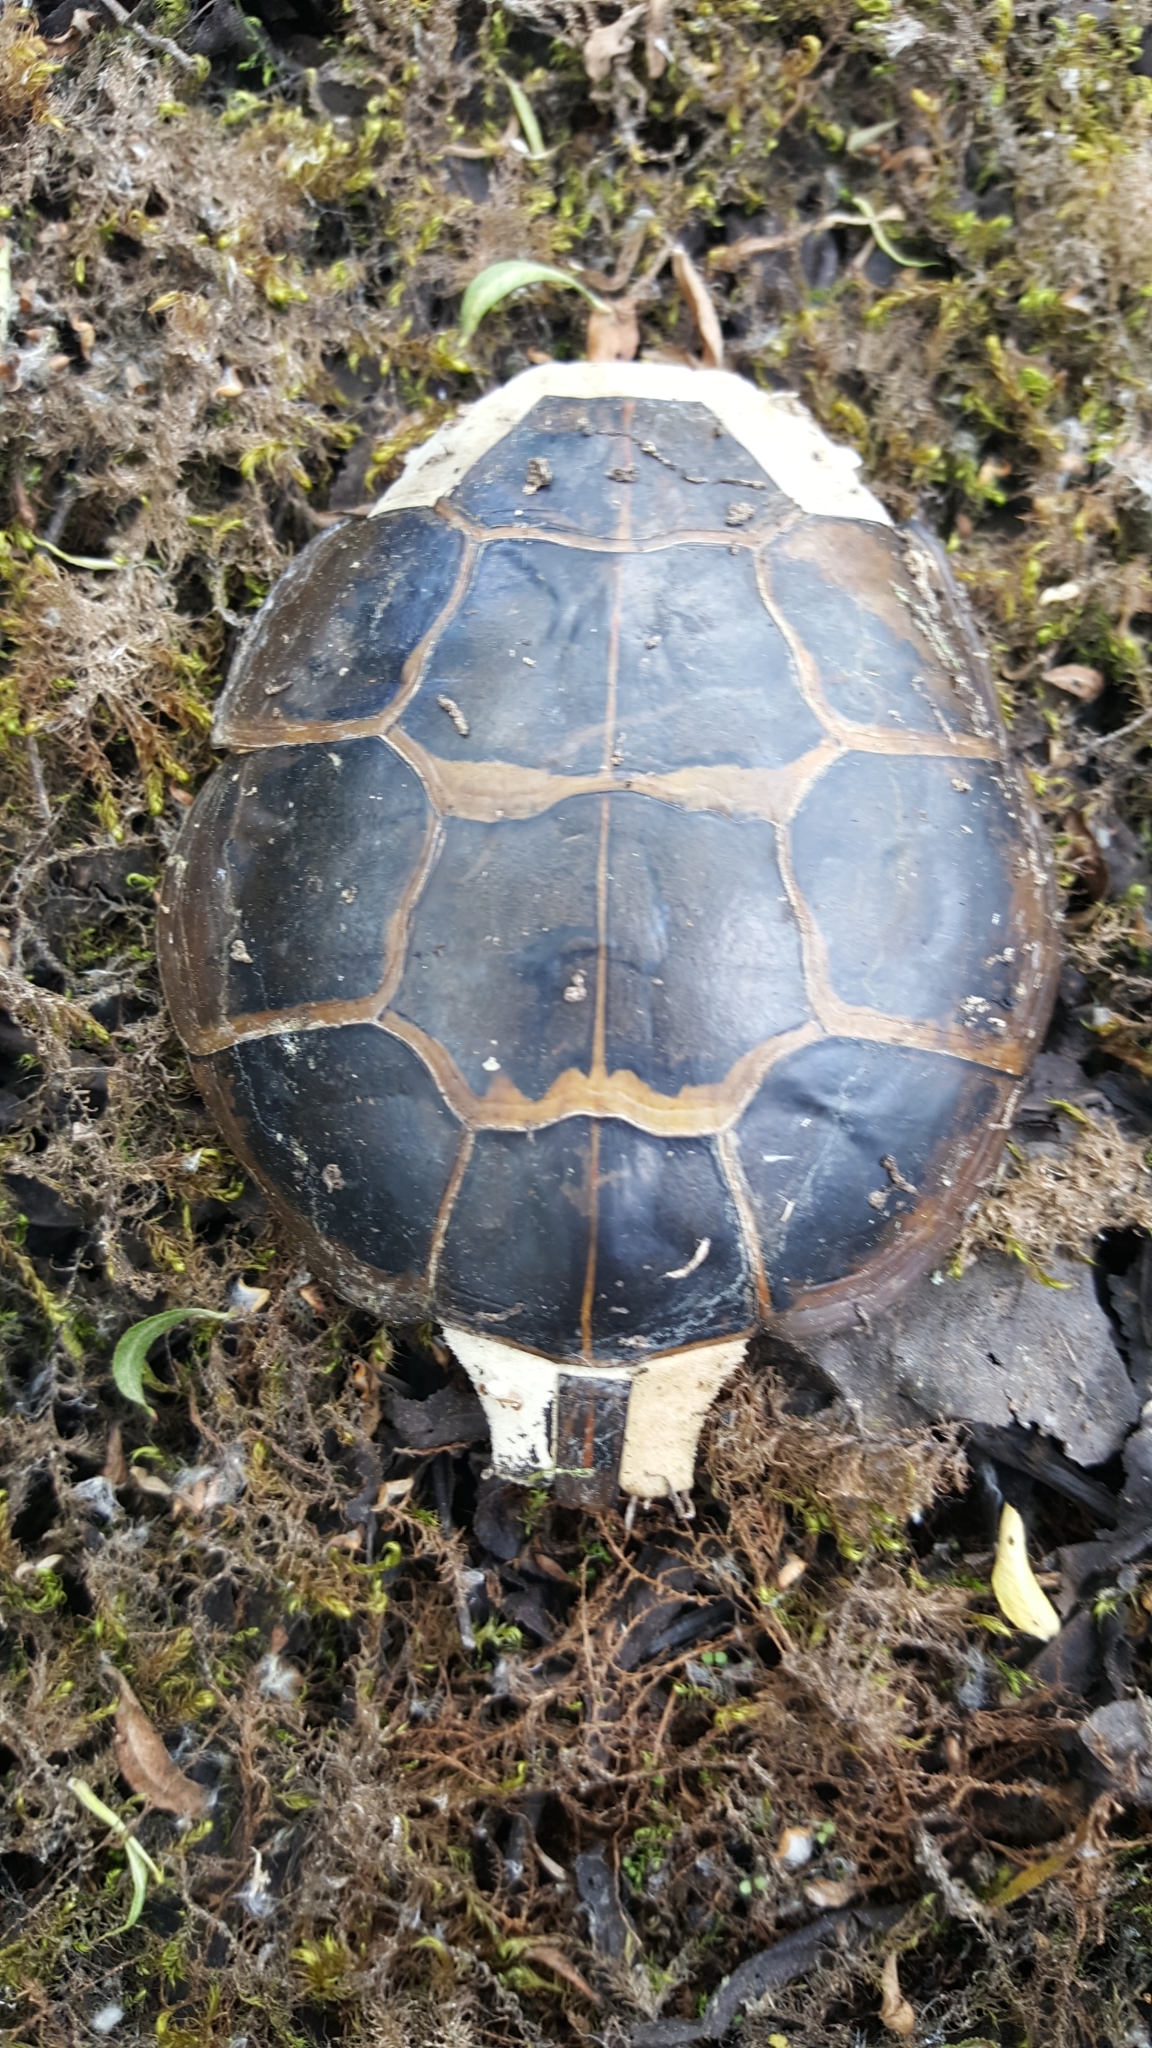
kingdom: Animalia
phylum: Chordata
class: Testudines
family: Emydidae
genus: Chrysemys
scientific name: Chrysemys picta
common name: Painted turtle
